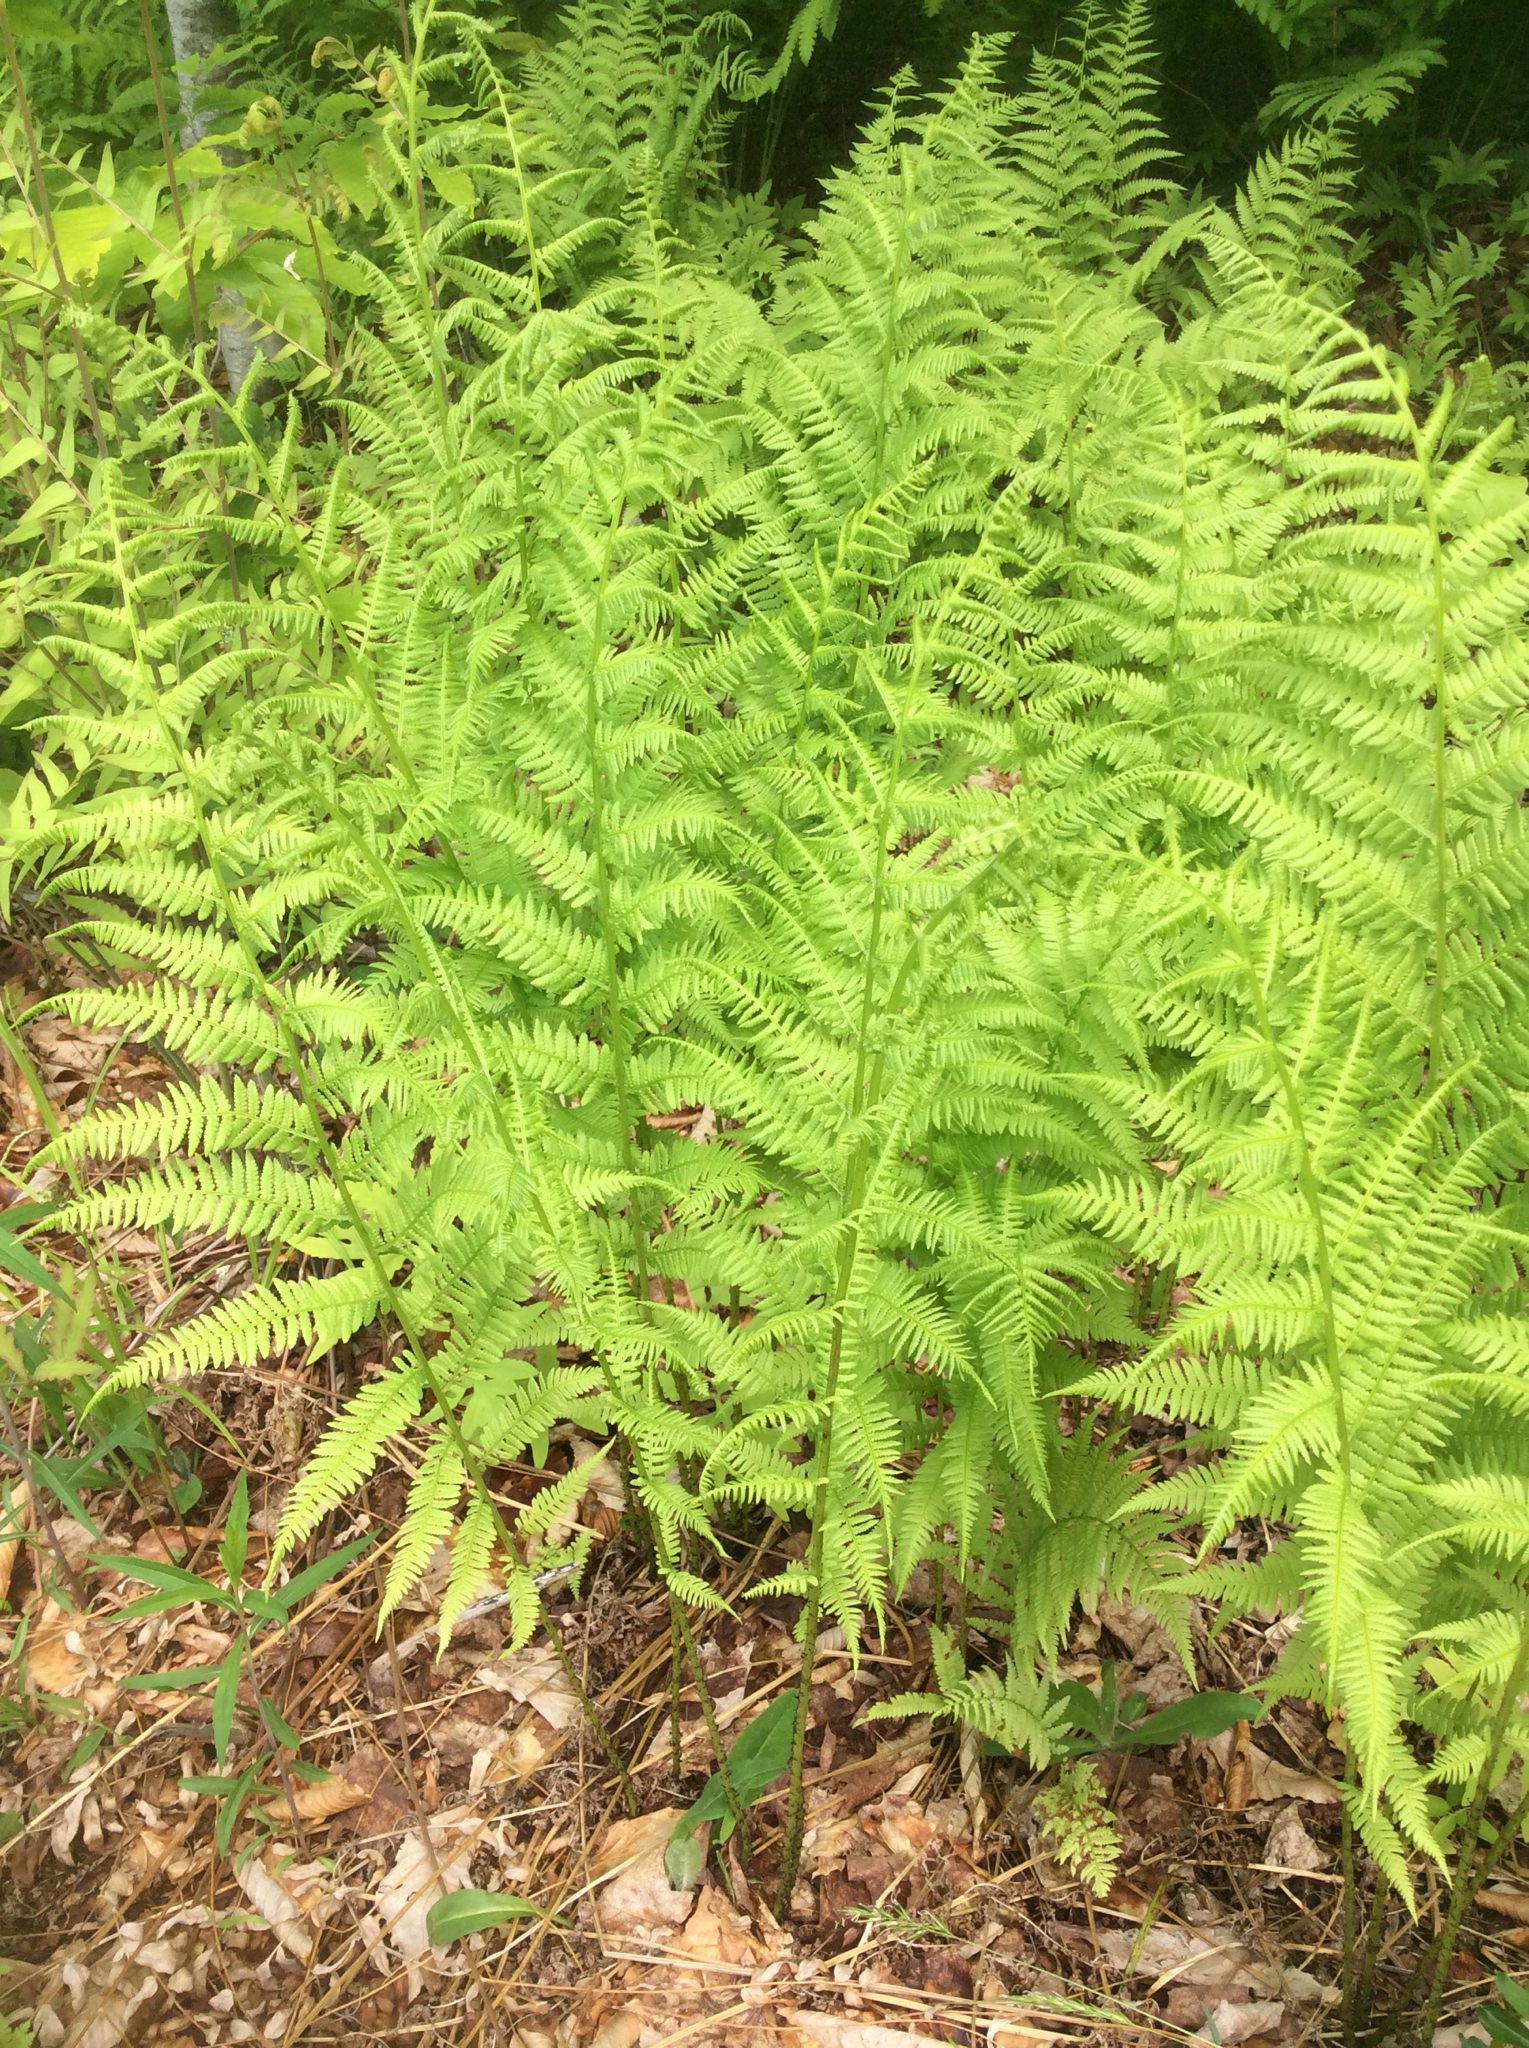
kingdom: Plantae
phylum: Tracheophyta
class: Polypodiopsida
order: Polypodiales
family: Athyriaceae
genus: Athyrium
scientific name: Athyrium angustum
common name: Northern lady fern
